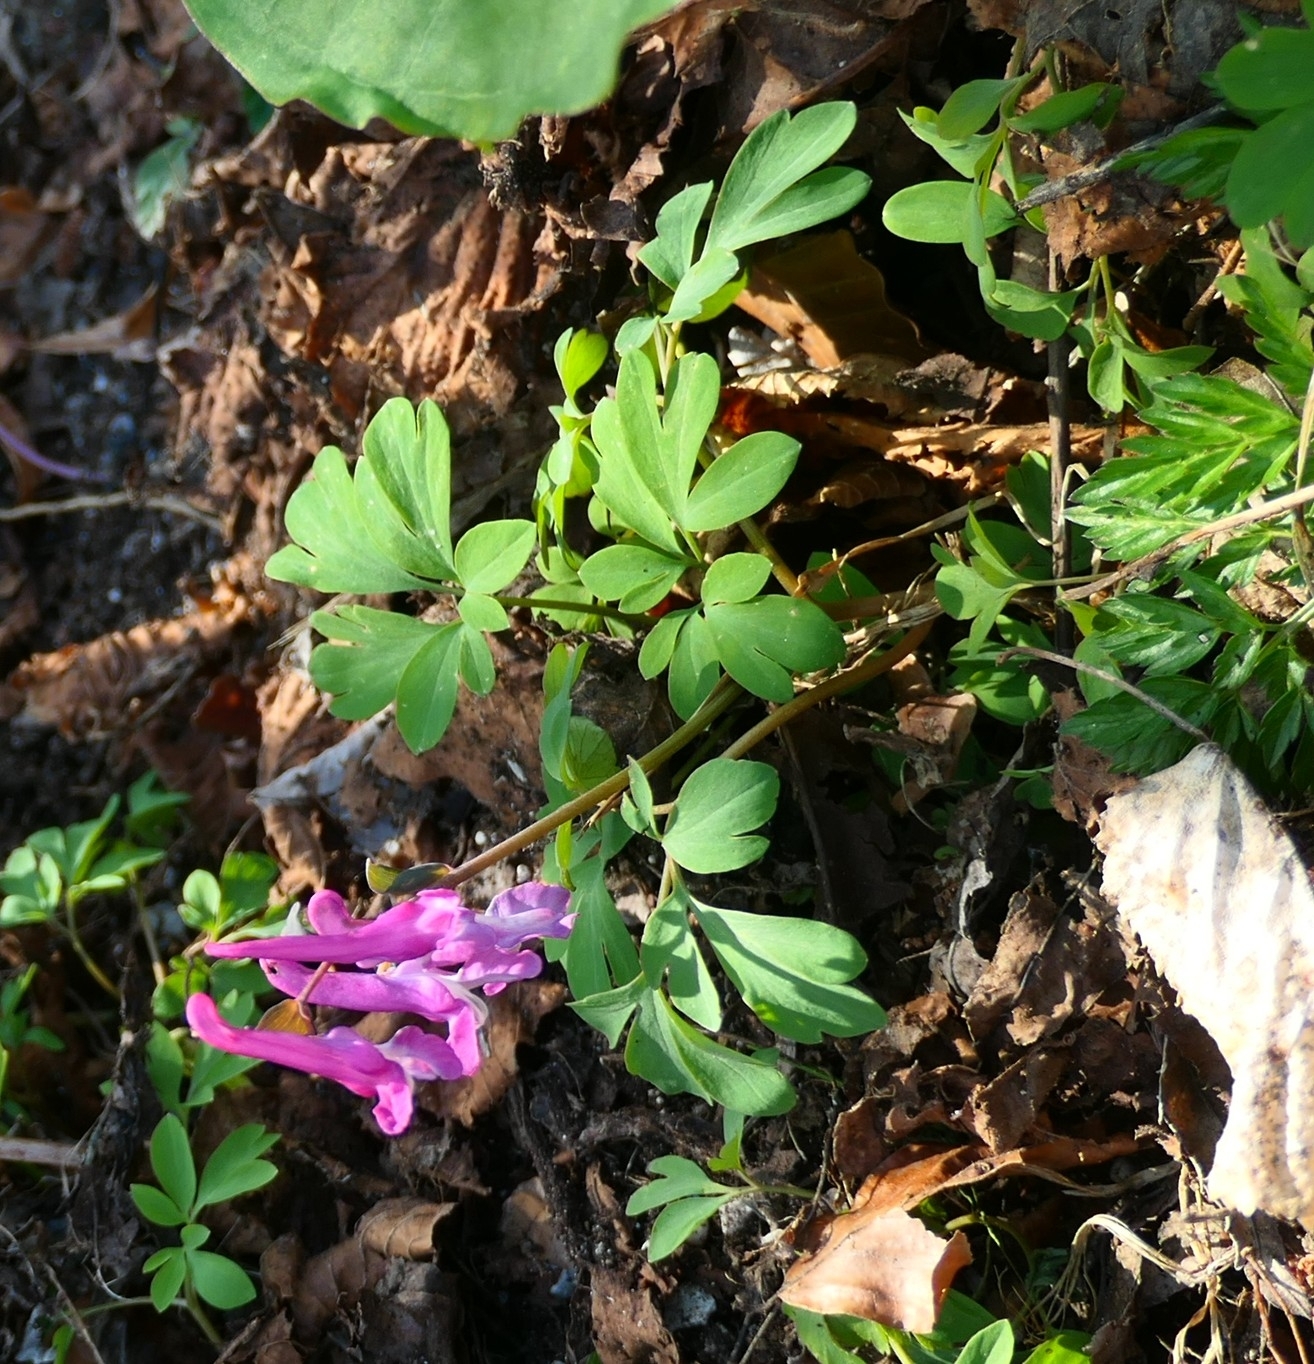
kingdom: Plantae
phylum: Tracheophyta
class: Magnoliopsida
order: Ranunculales
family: Papaveraceae
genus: Corydalis
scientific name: Corydalis cava
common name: Hollowroot
